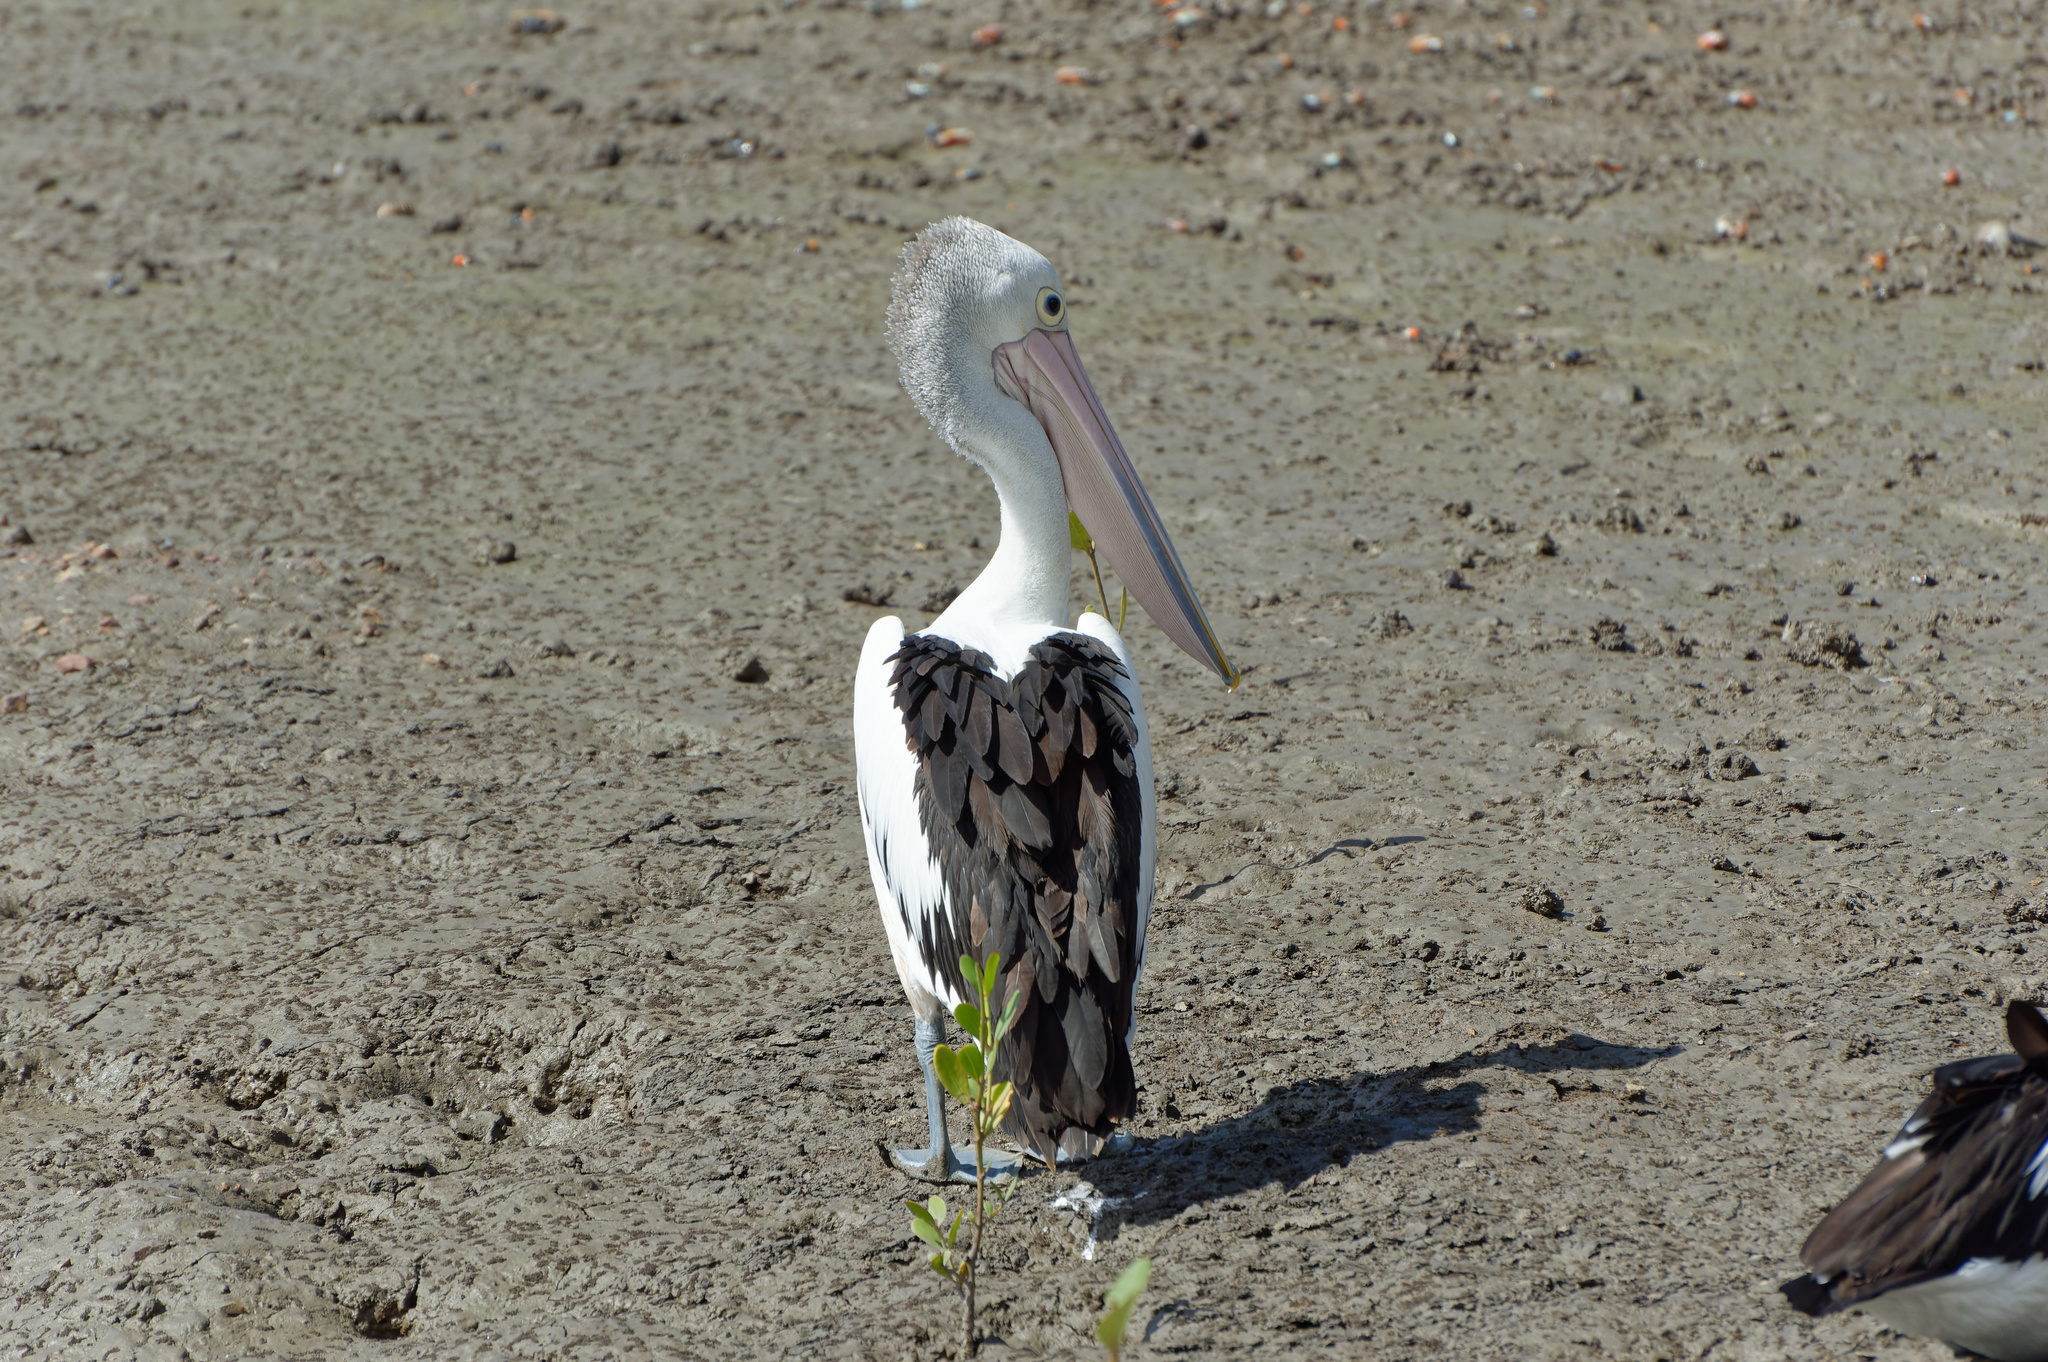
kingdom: Animalia
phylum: Chordata
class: Aves
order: Pelecaniformes
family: Pelecanidae
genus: Pelecanus
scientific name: Pelecanus conspicillatus
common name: Australian pelican
